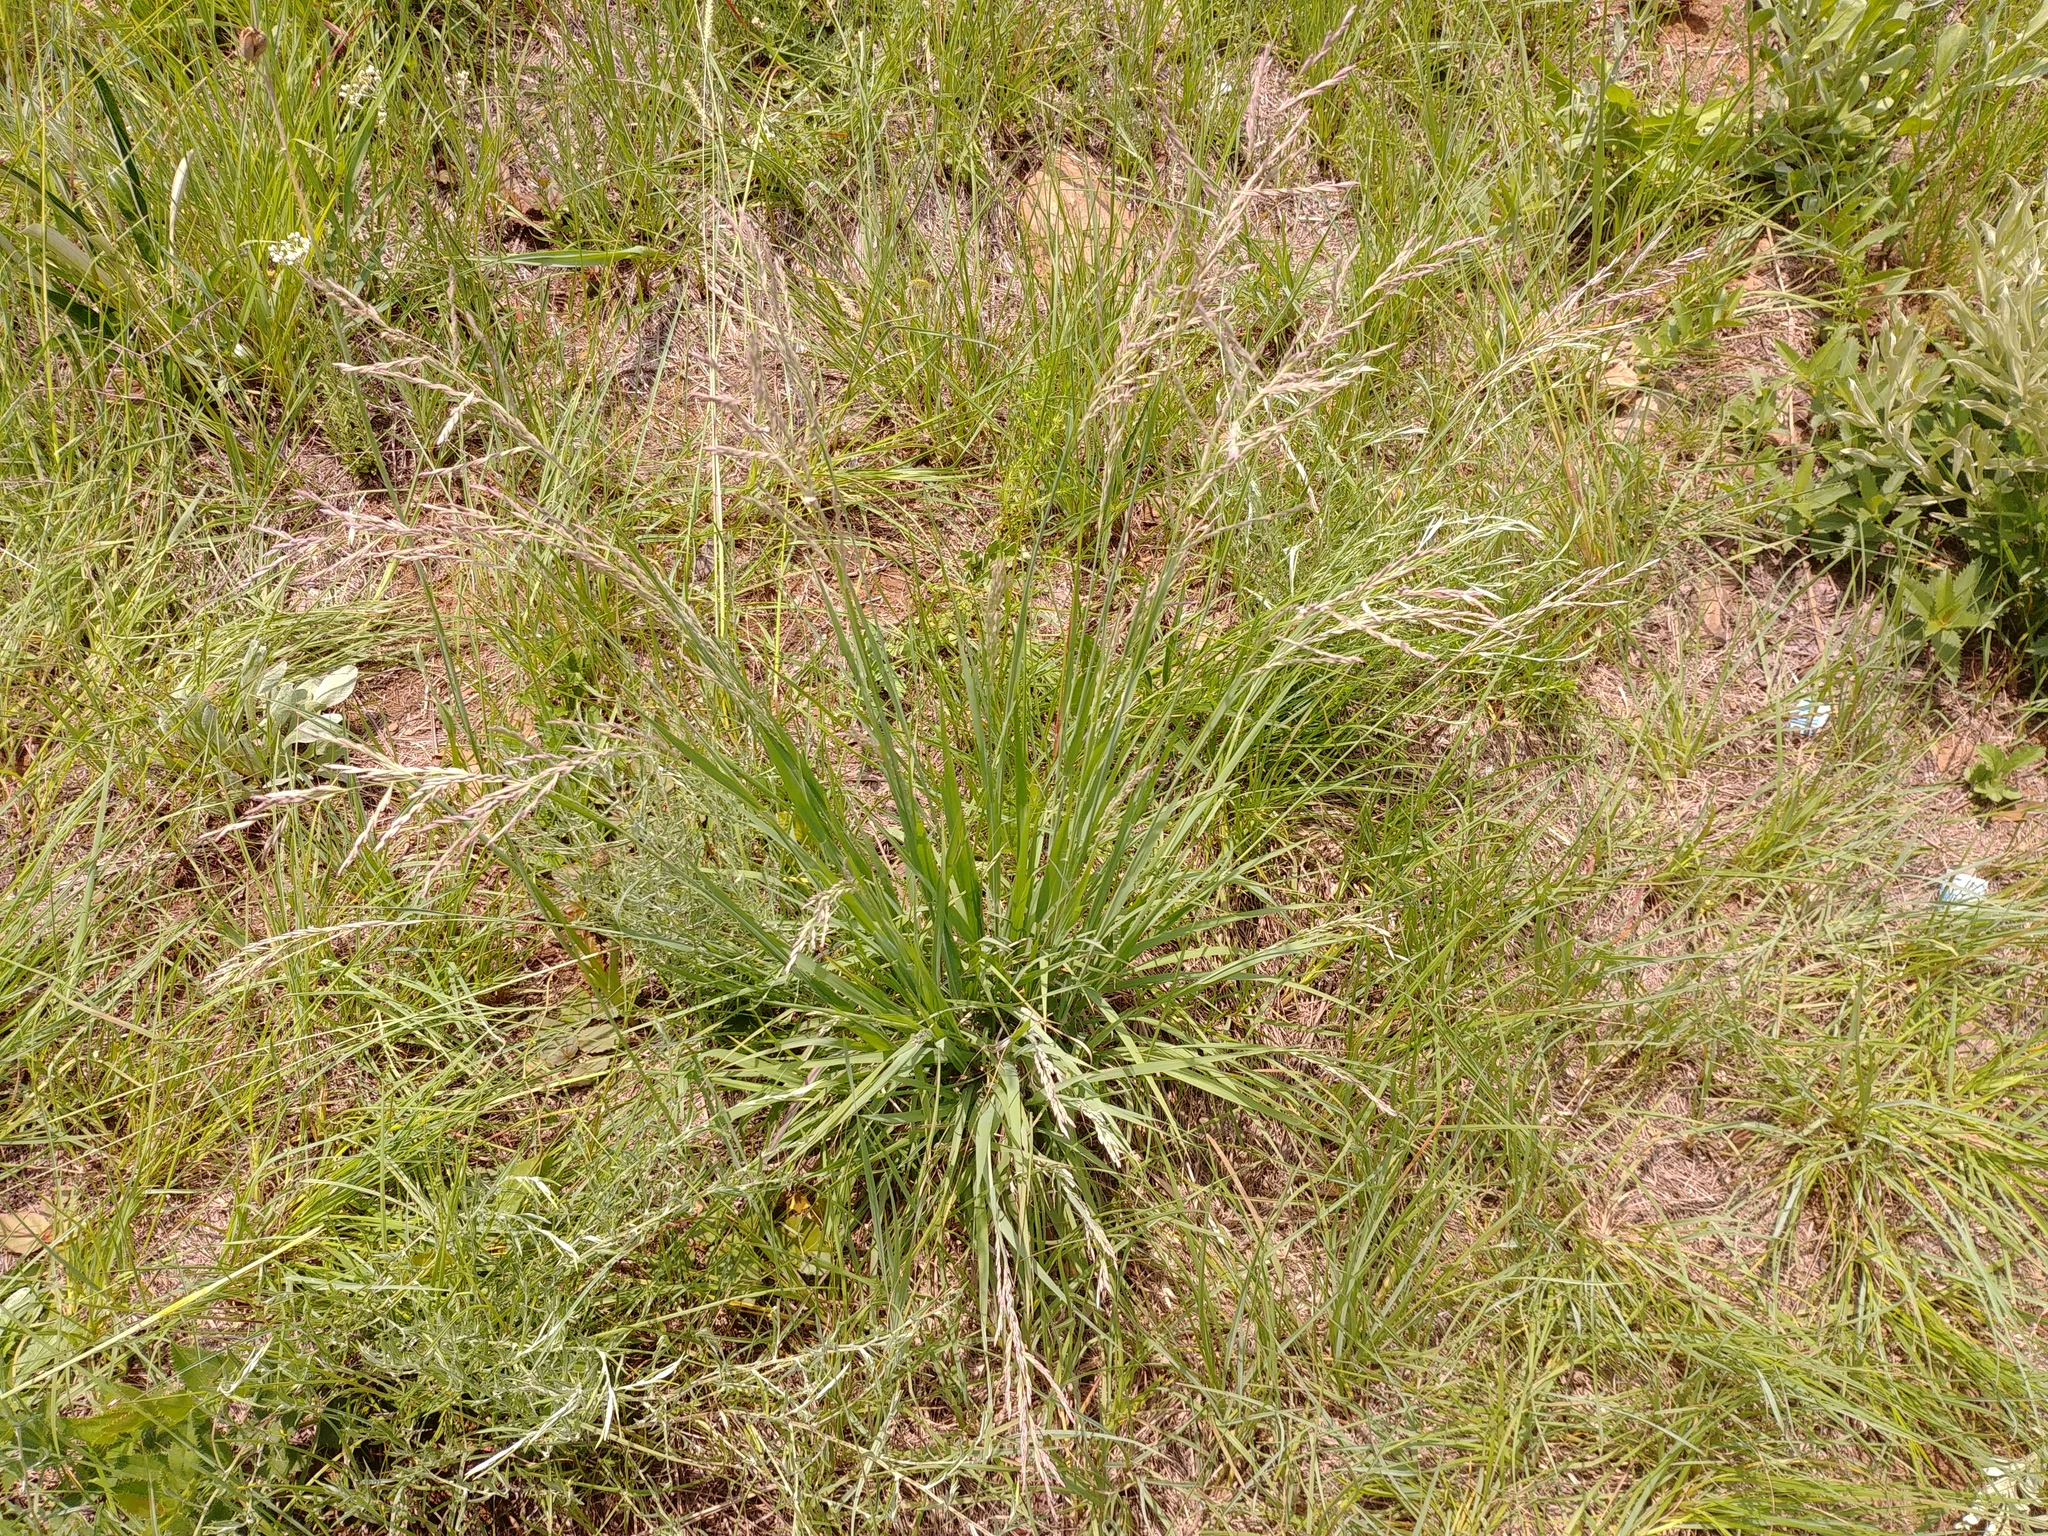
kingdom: Plantae
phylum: Tracheophyta
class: Liliopsida
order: Poales
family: Poaceae
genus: Bewsia
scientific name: Bewsia biflora
